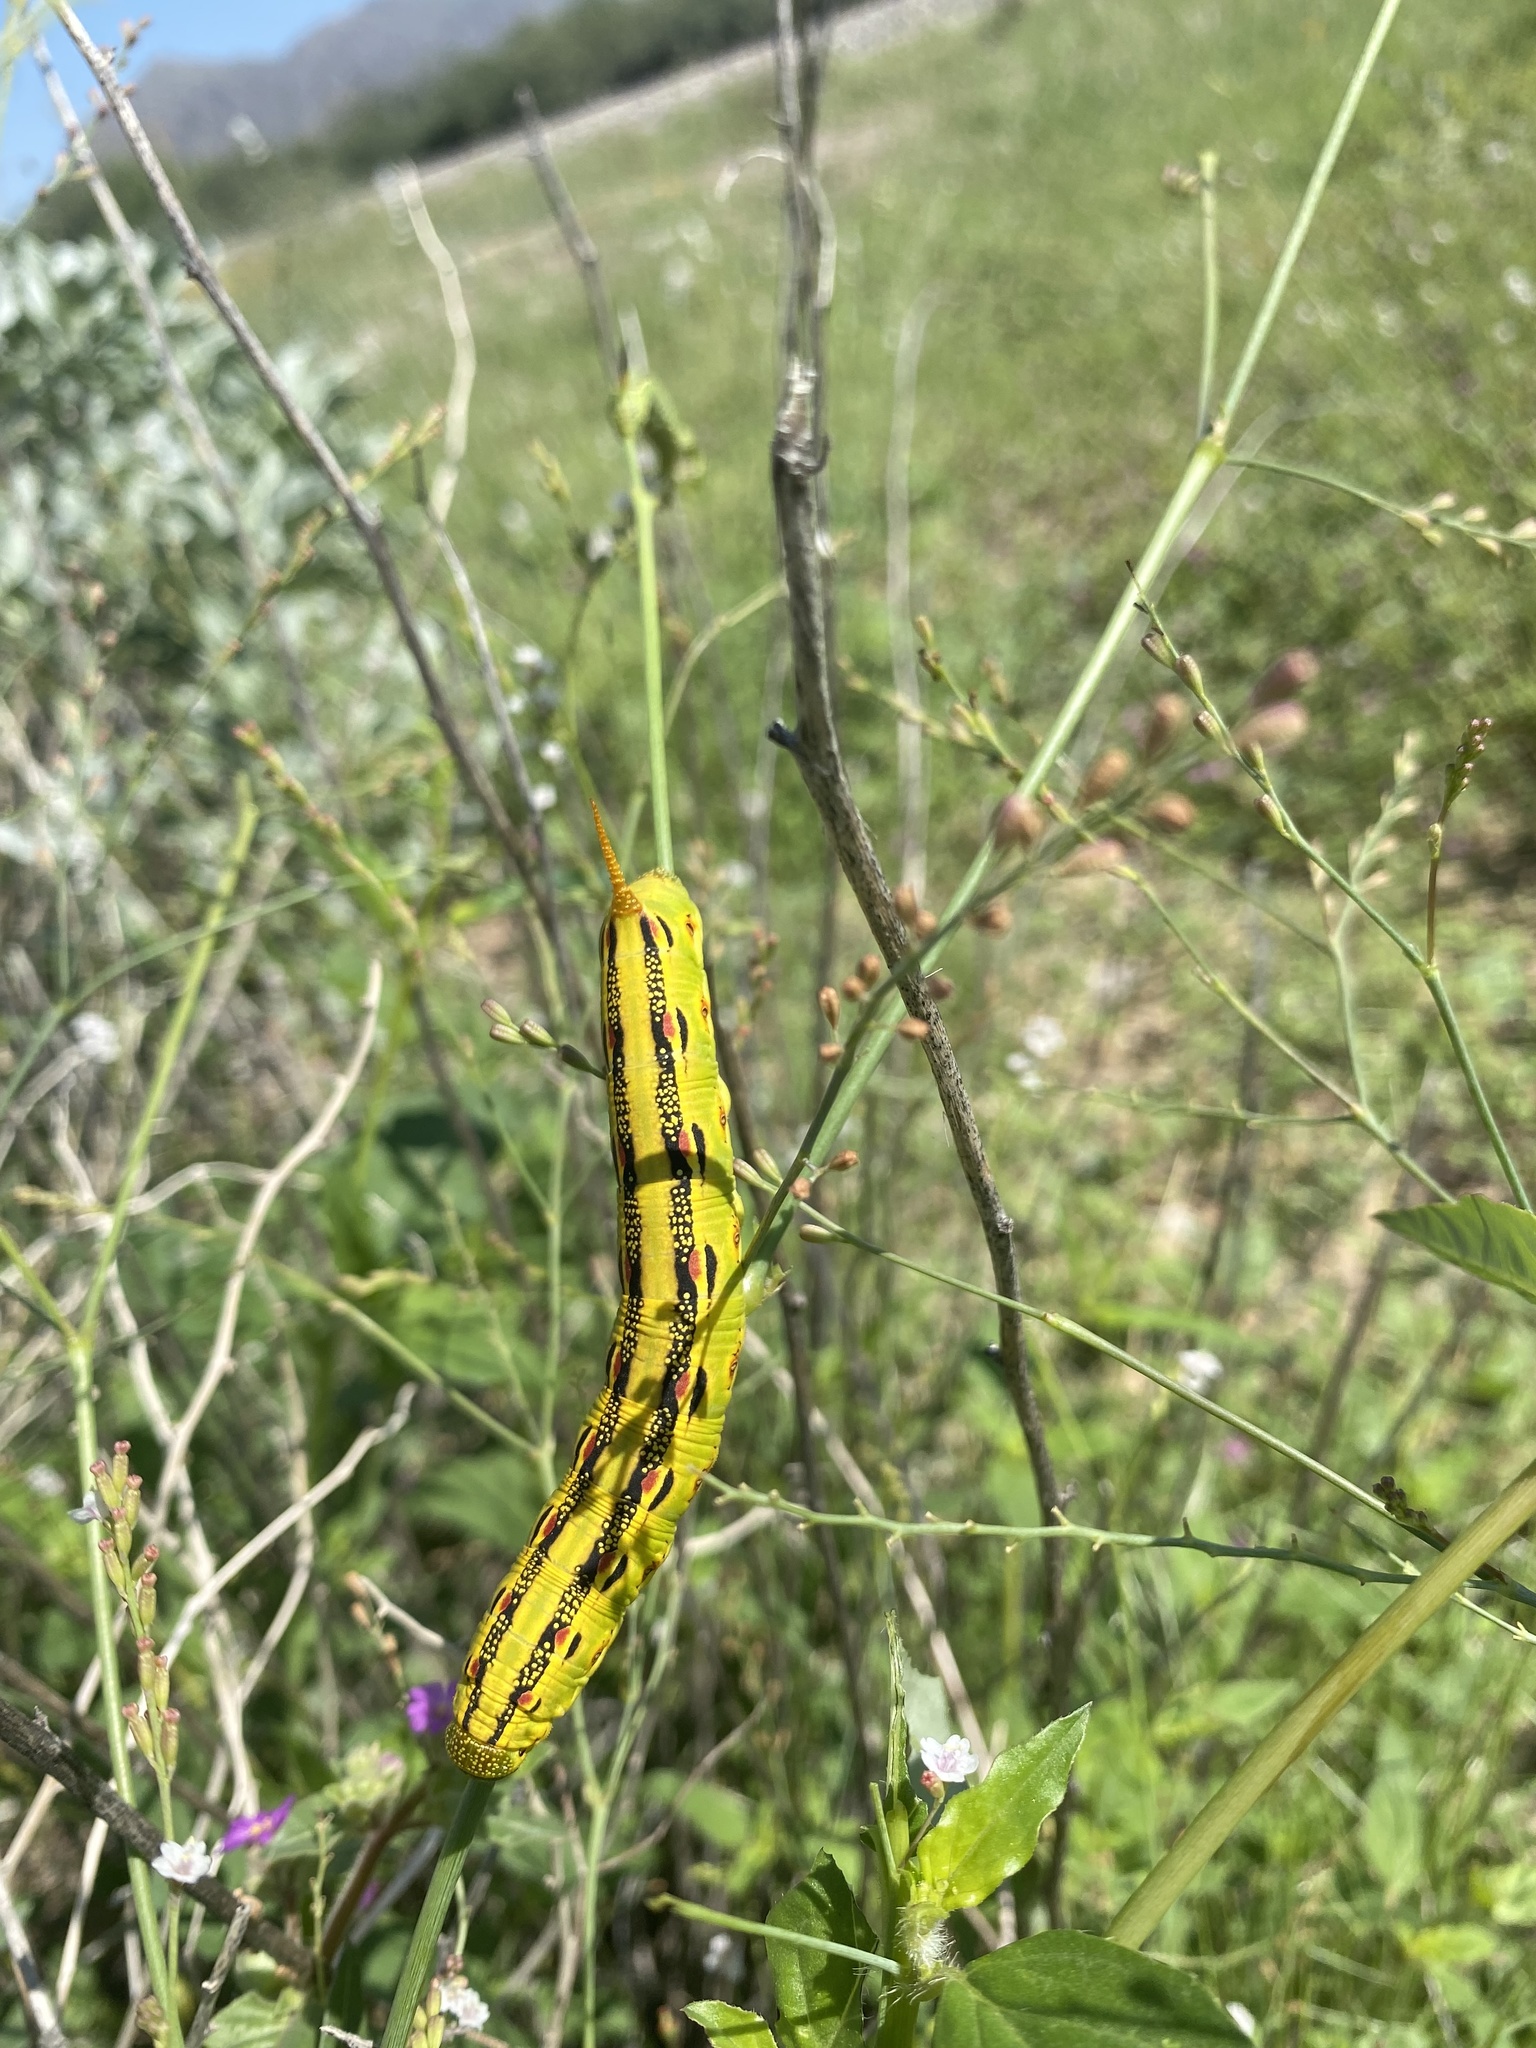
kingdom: Animalia
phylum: Arthropoda
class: Insecta
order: Lepidoptera
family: Sphingidae
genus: Hyles
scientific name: Hyles lineata
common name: White-lined sphinx
